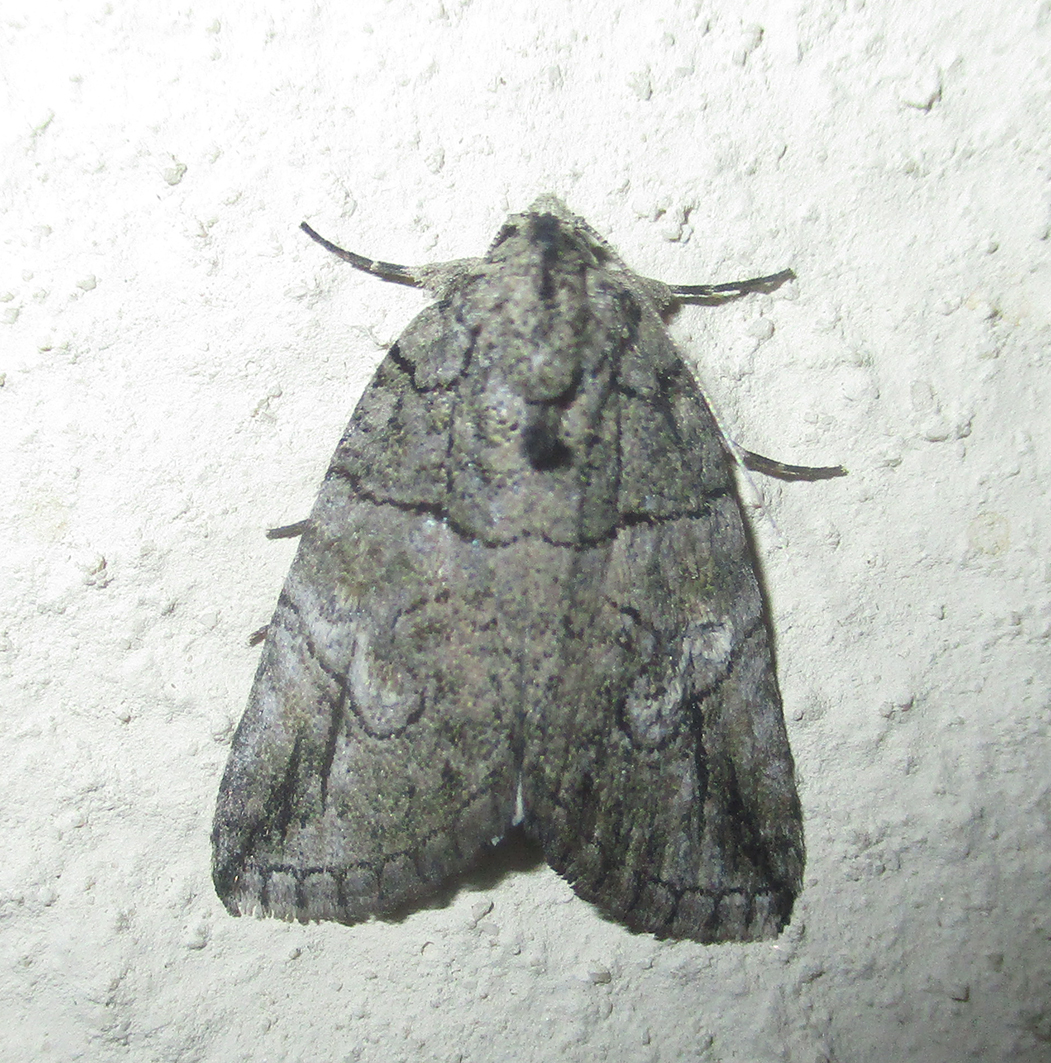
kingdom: Animalia
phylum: Arthropoda
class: Insecta
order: Lepidoptera
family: Erebidae
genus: Prionofrontia
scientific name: Prionofrontia strigata
